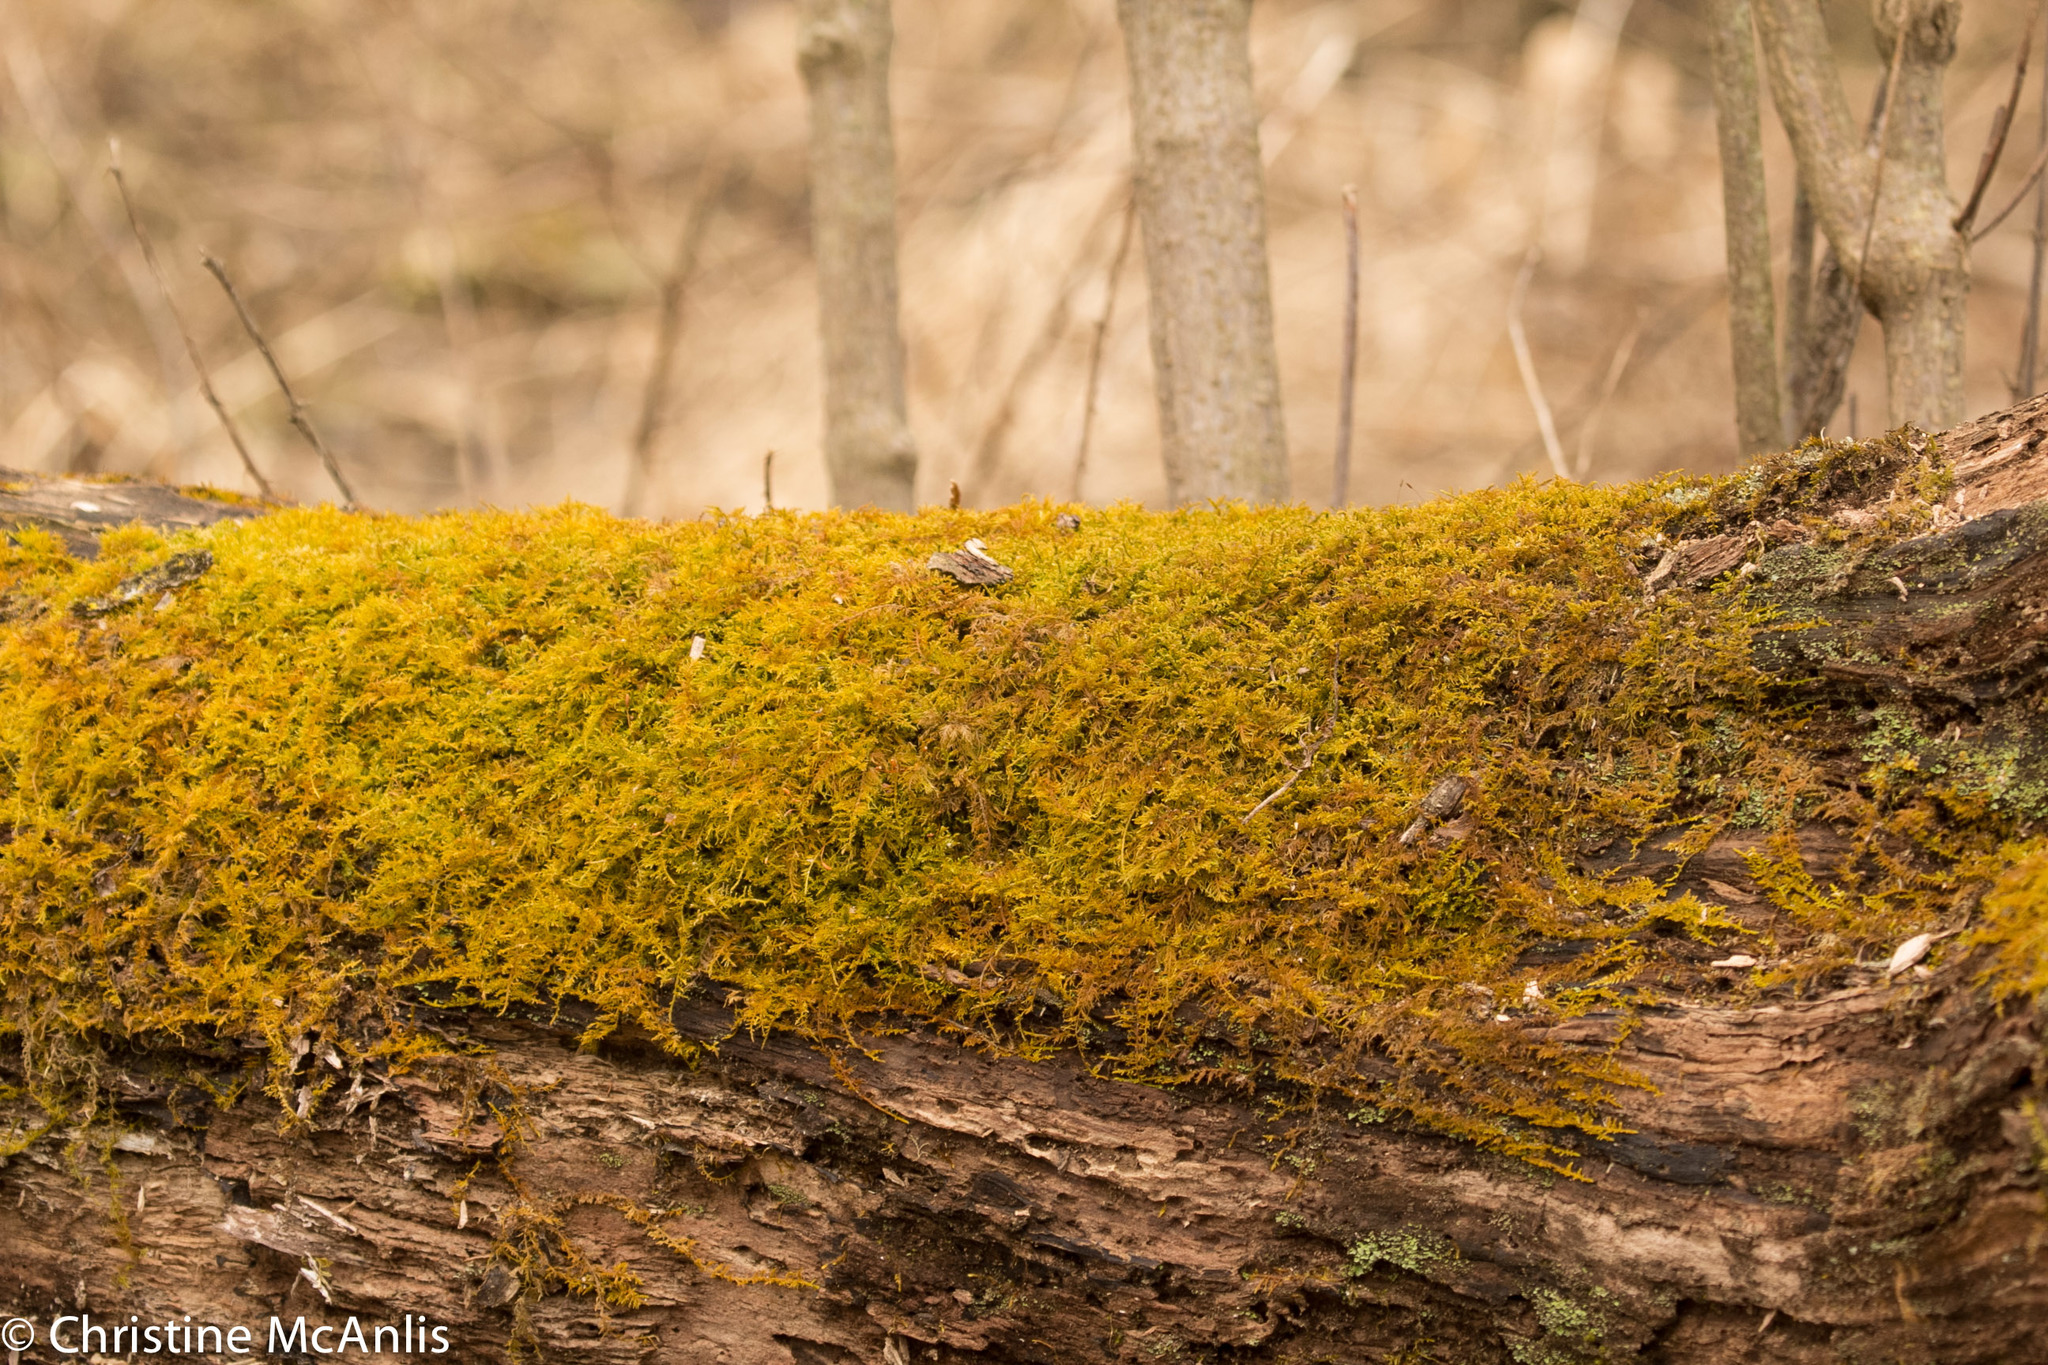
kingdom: Plantae
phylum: Bryophyta
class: Bryopsida
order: Hypnales
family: Thuidiaceae
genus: Thuidium
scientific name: Thuidium delicatulum
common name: Delicate fern moss
